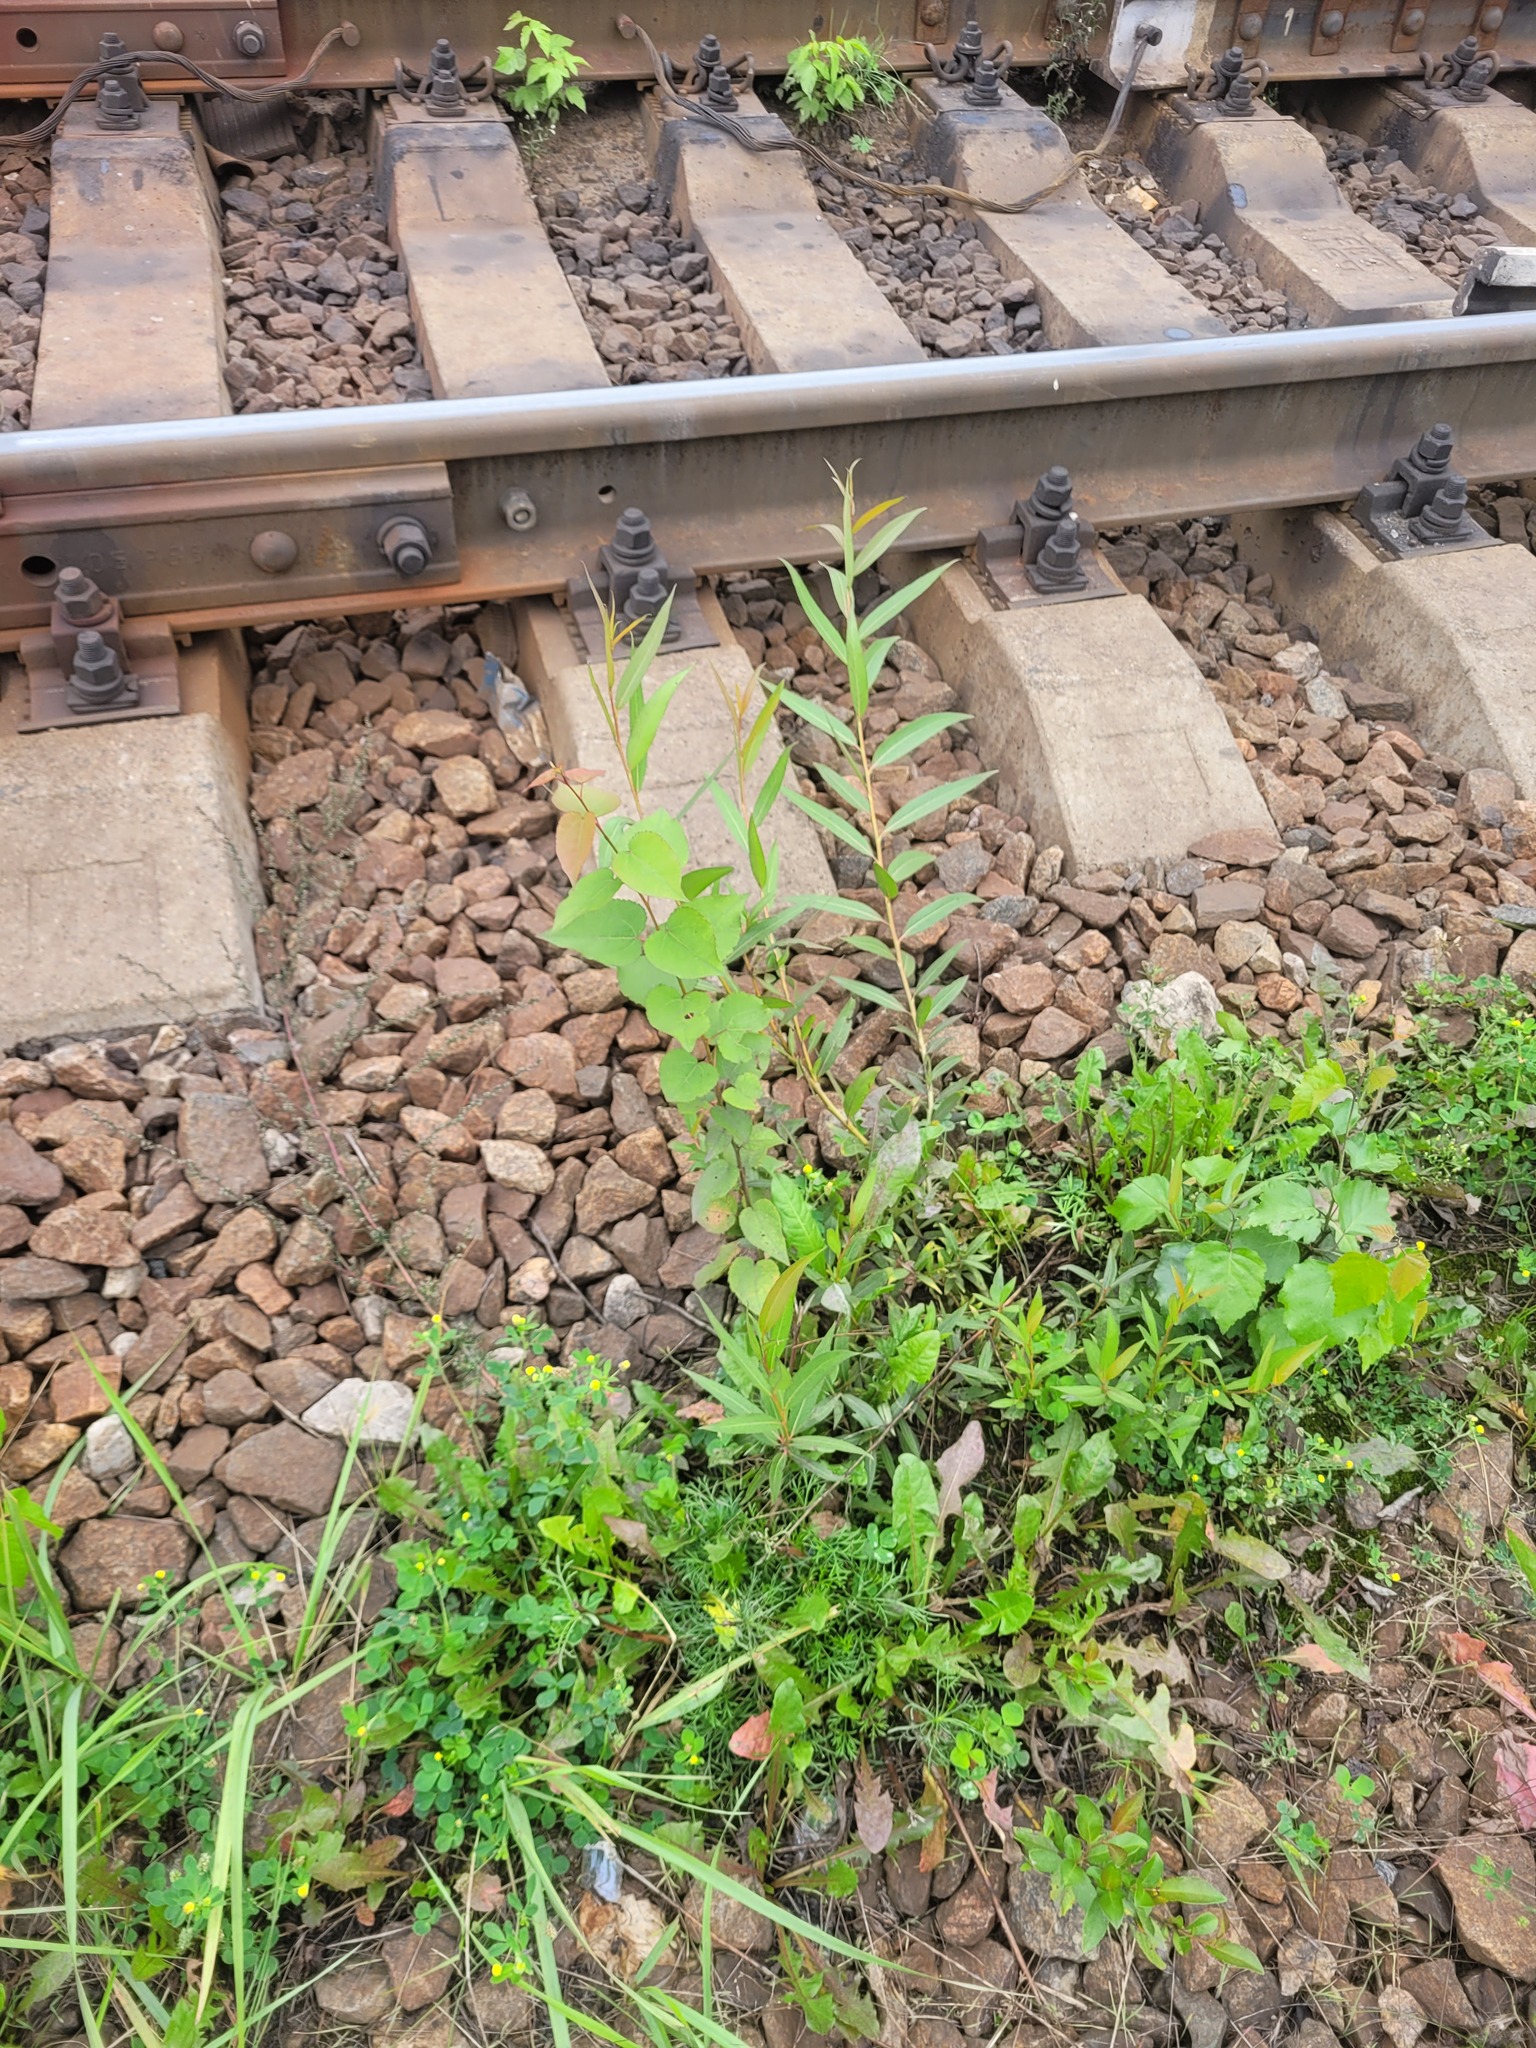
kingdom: Plantae
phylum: Tracheophyta
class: Magnoliopsida
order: Malpighiales
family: Salicaceae
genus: Populus
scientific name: Populus tremula
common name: European aspen
